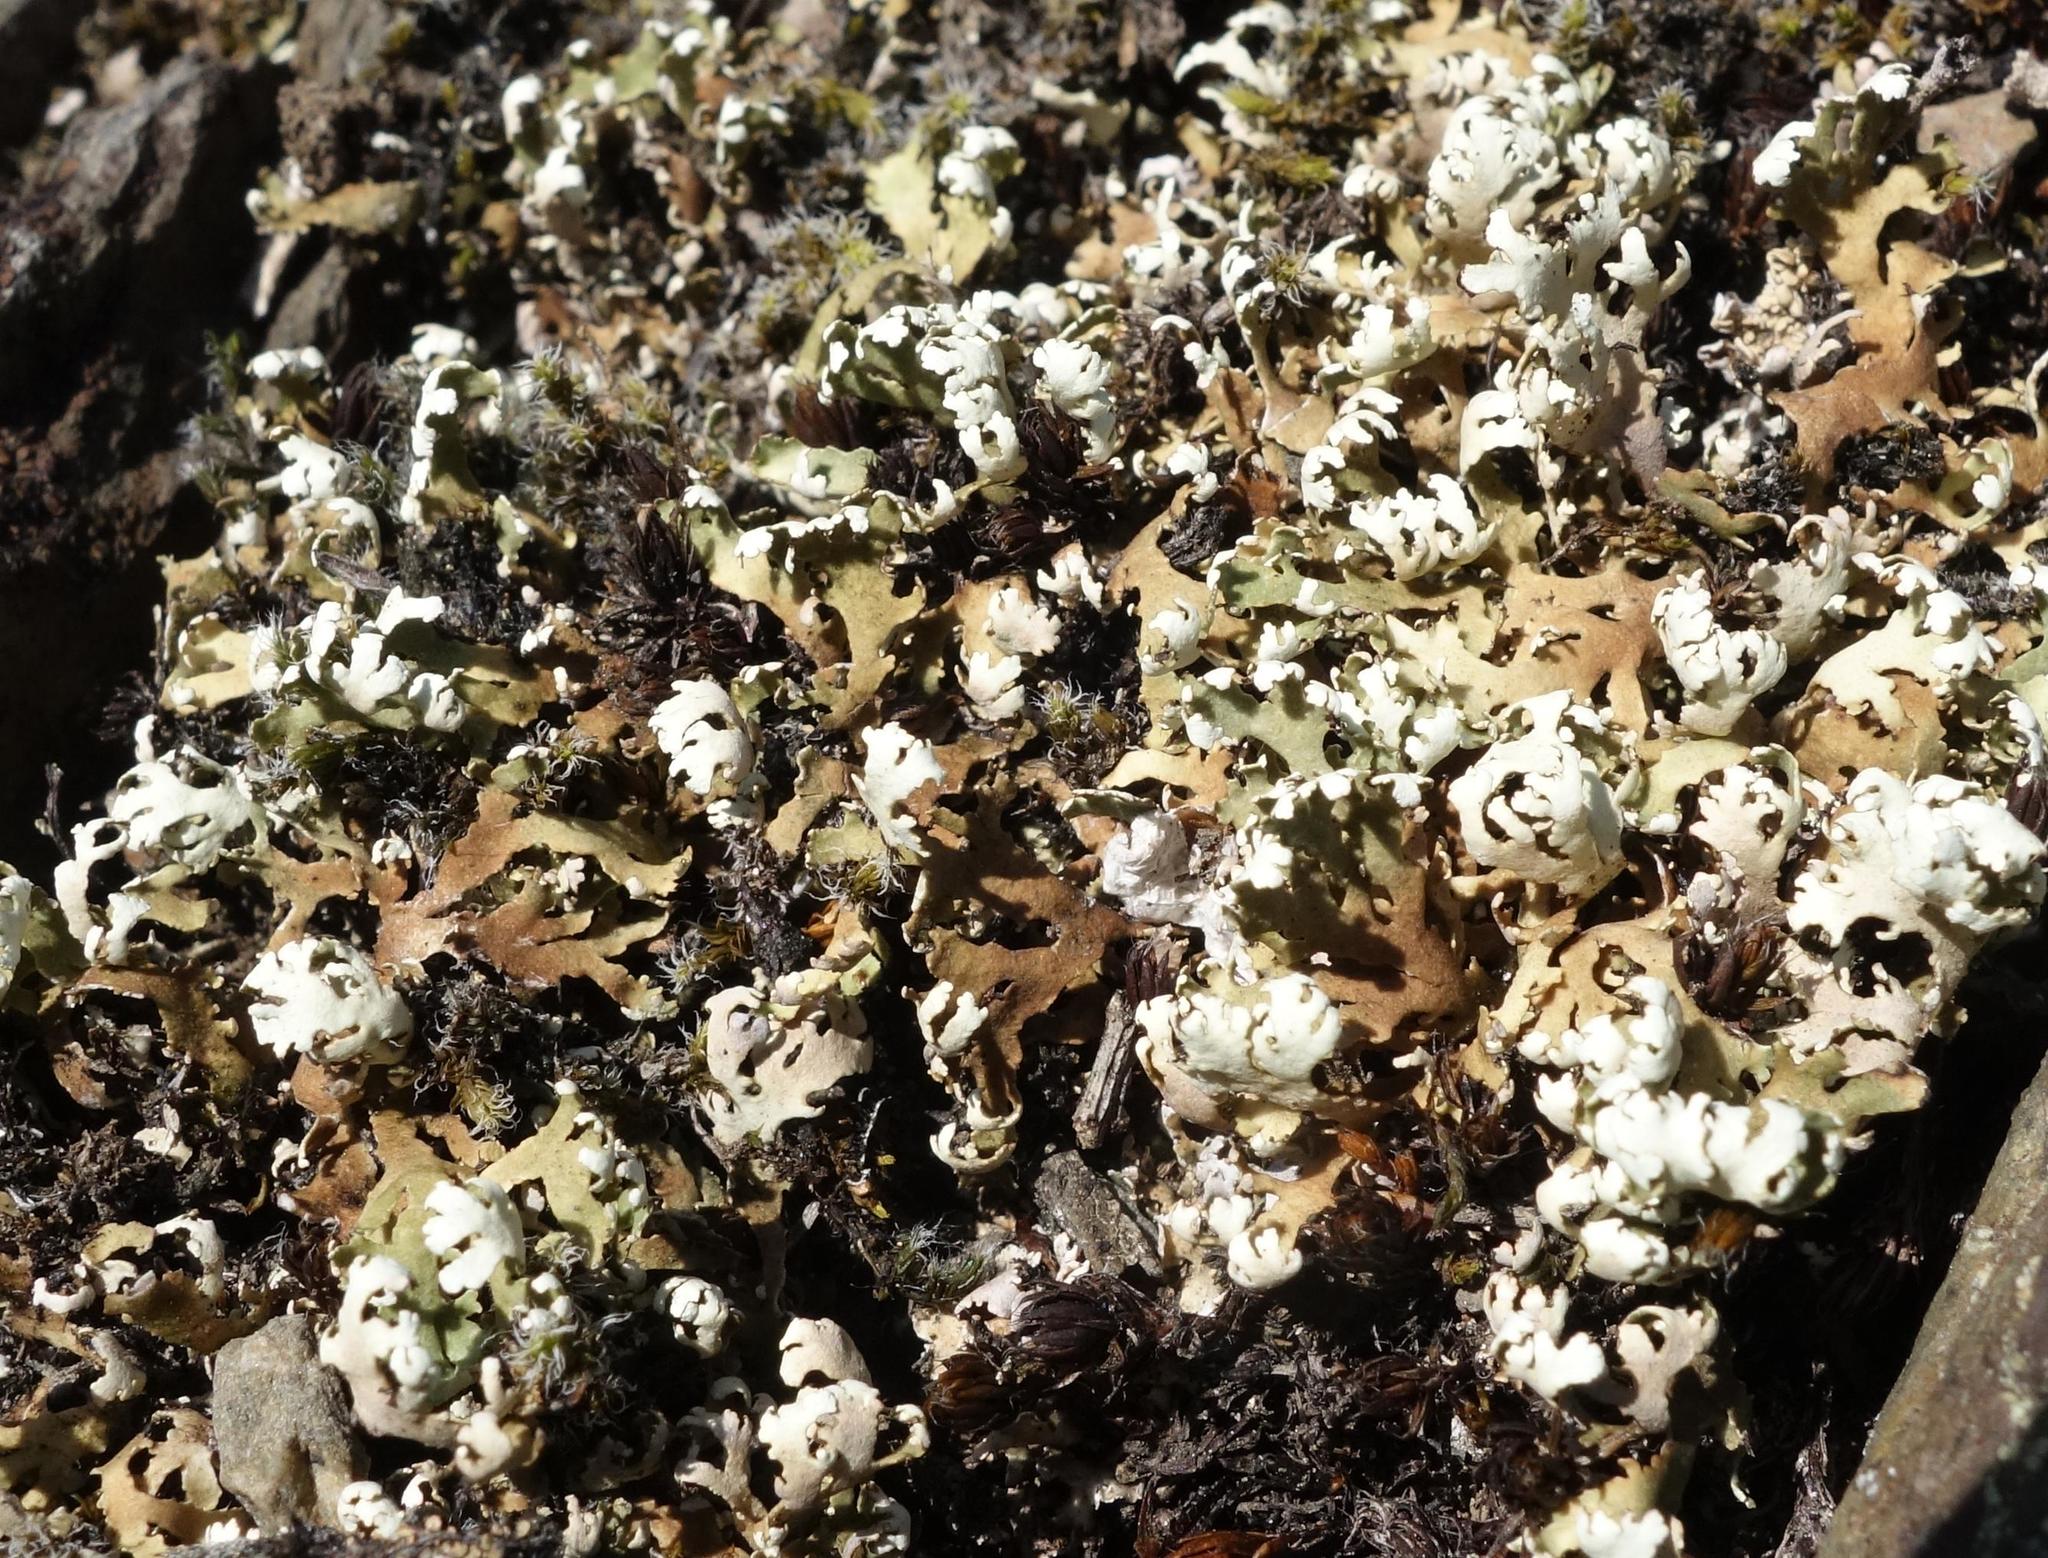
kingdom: Fungi
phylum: Ascomycota
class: Lecanoromycetes
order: Lecanorales
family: Cladoniaceae
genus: Cladonia
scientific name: Cladonia foliacea
